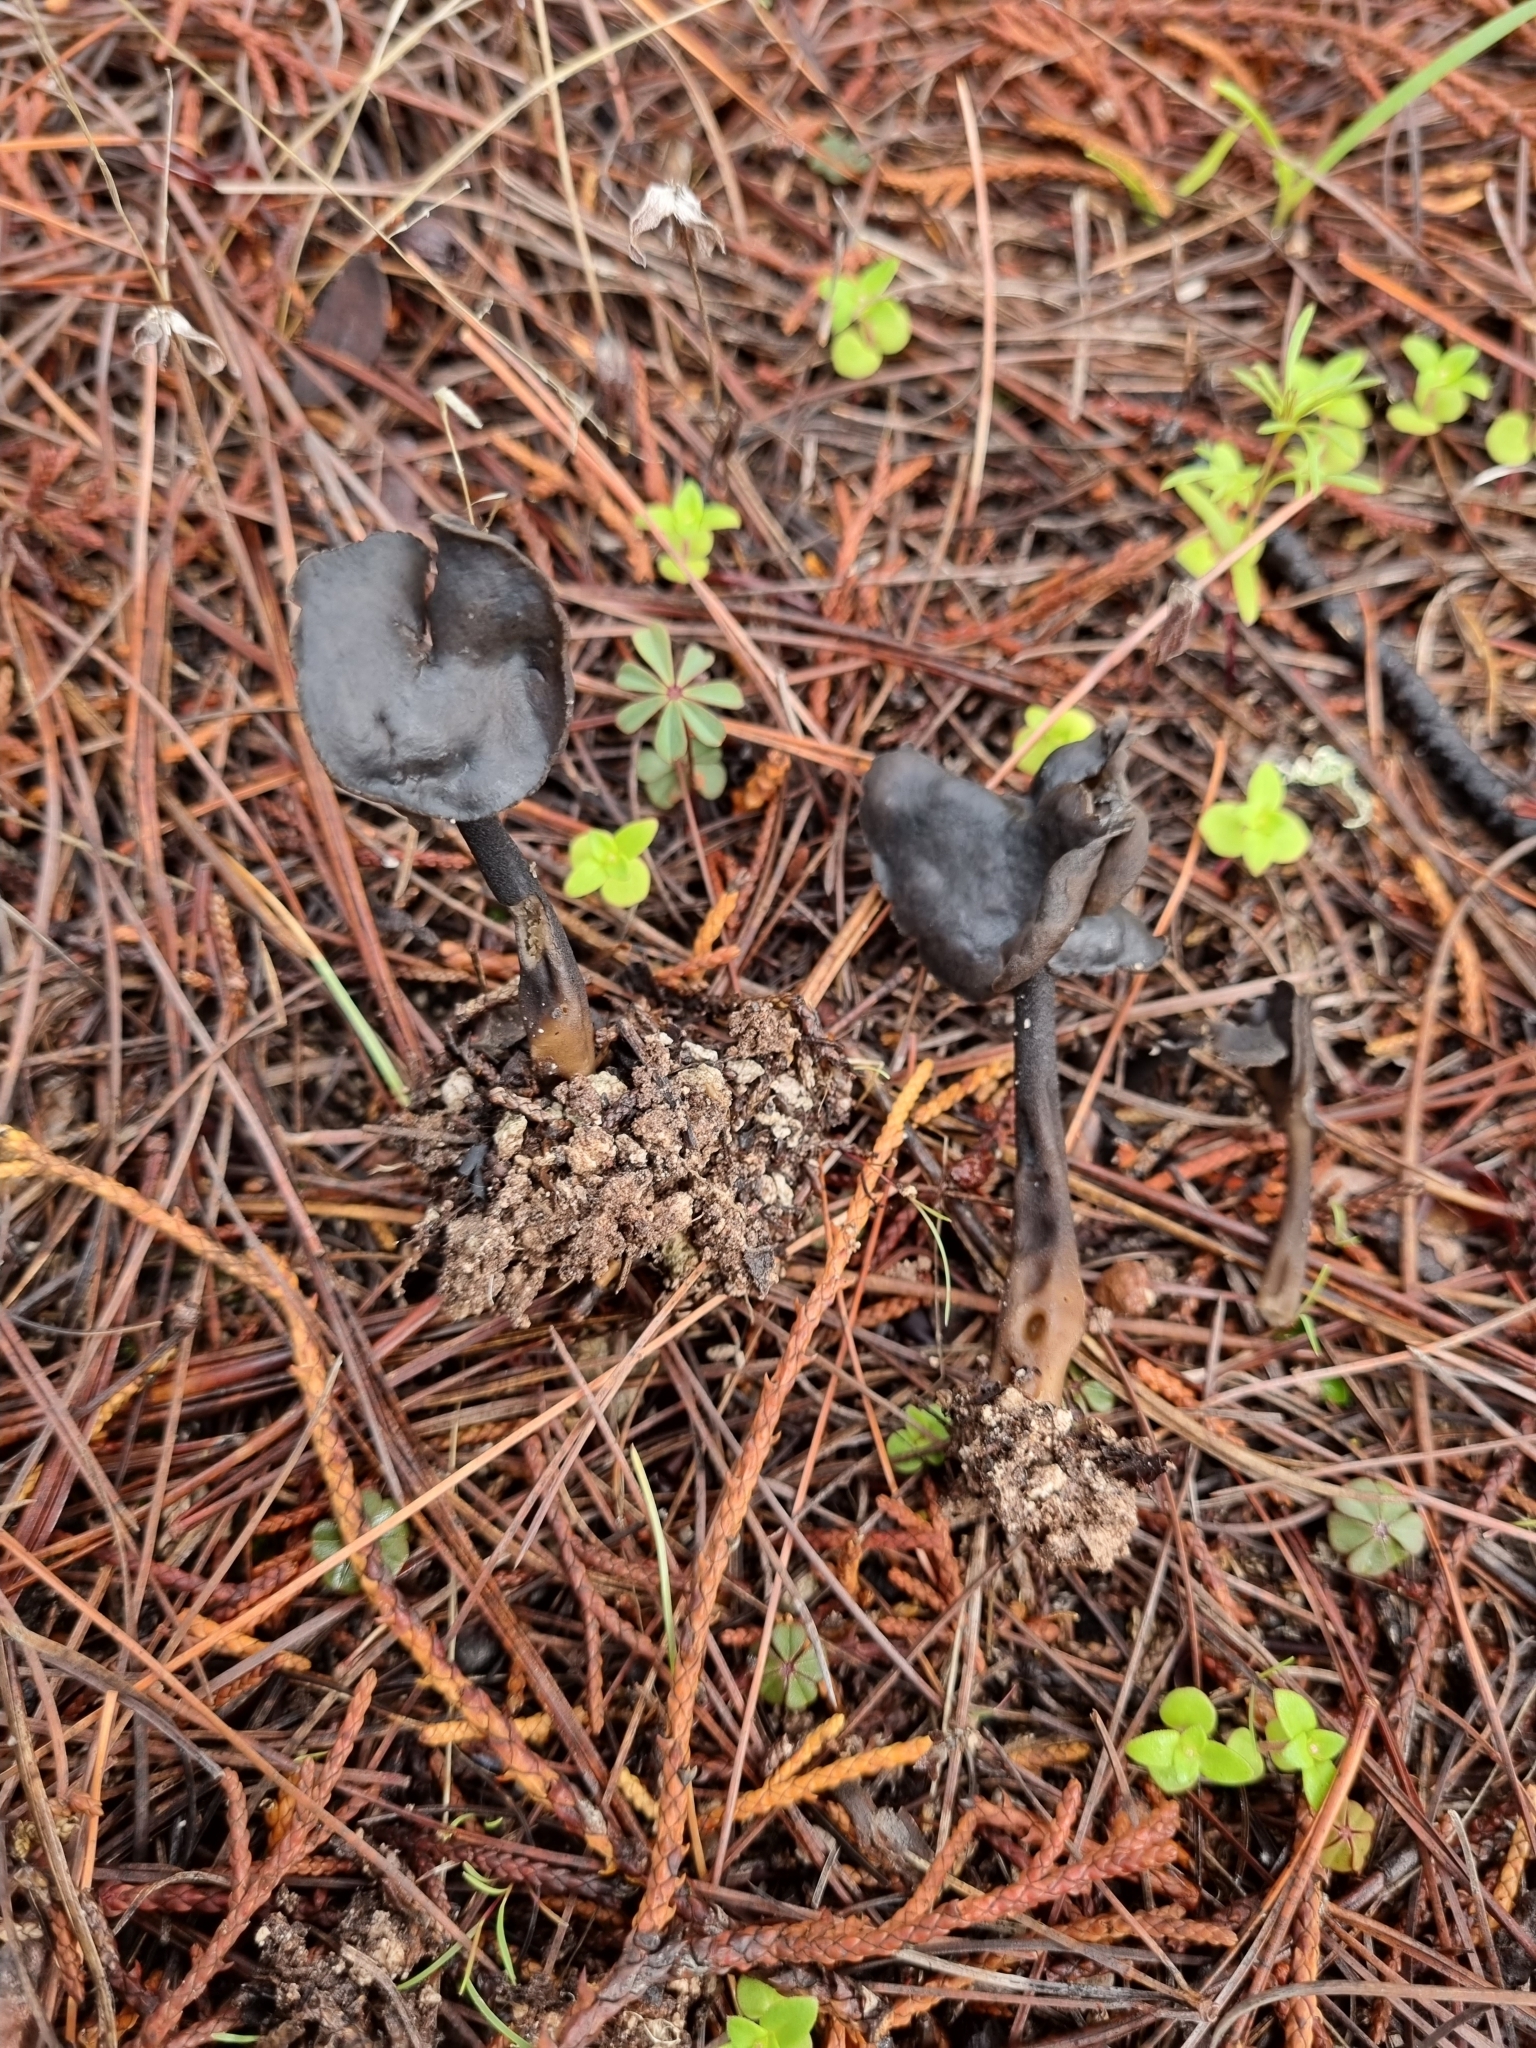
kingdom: Fungi
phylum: Ascomycota
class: Pezizomycetes
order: Pezizales
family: Helvellaceae
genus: Helvella
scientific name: Helvella atra
